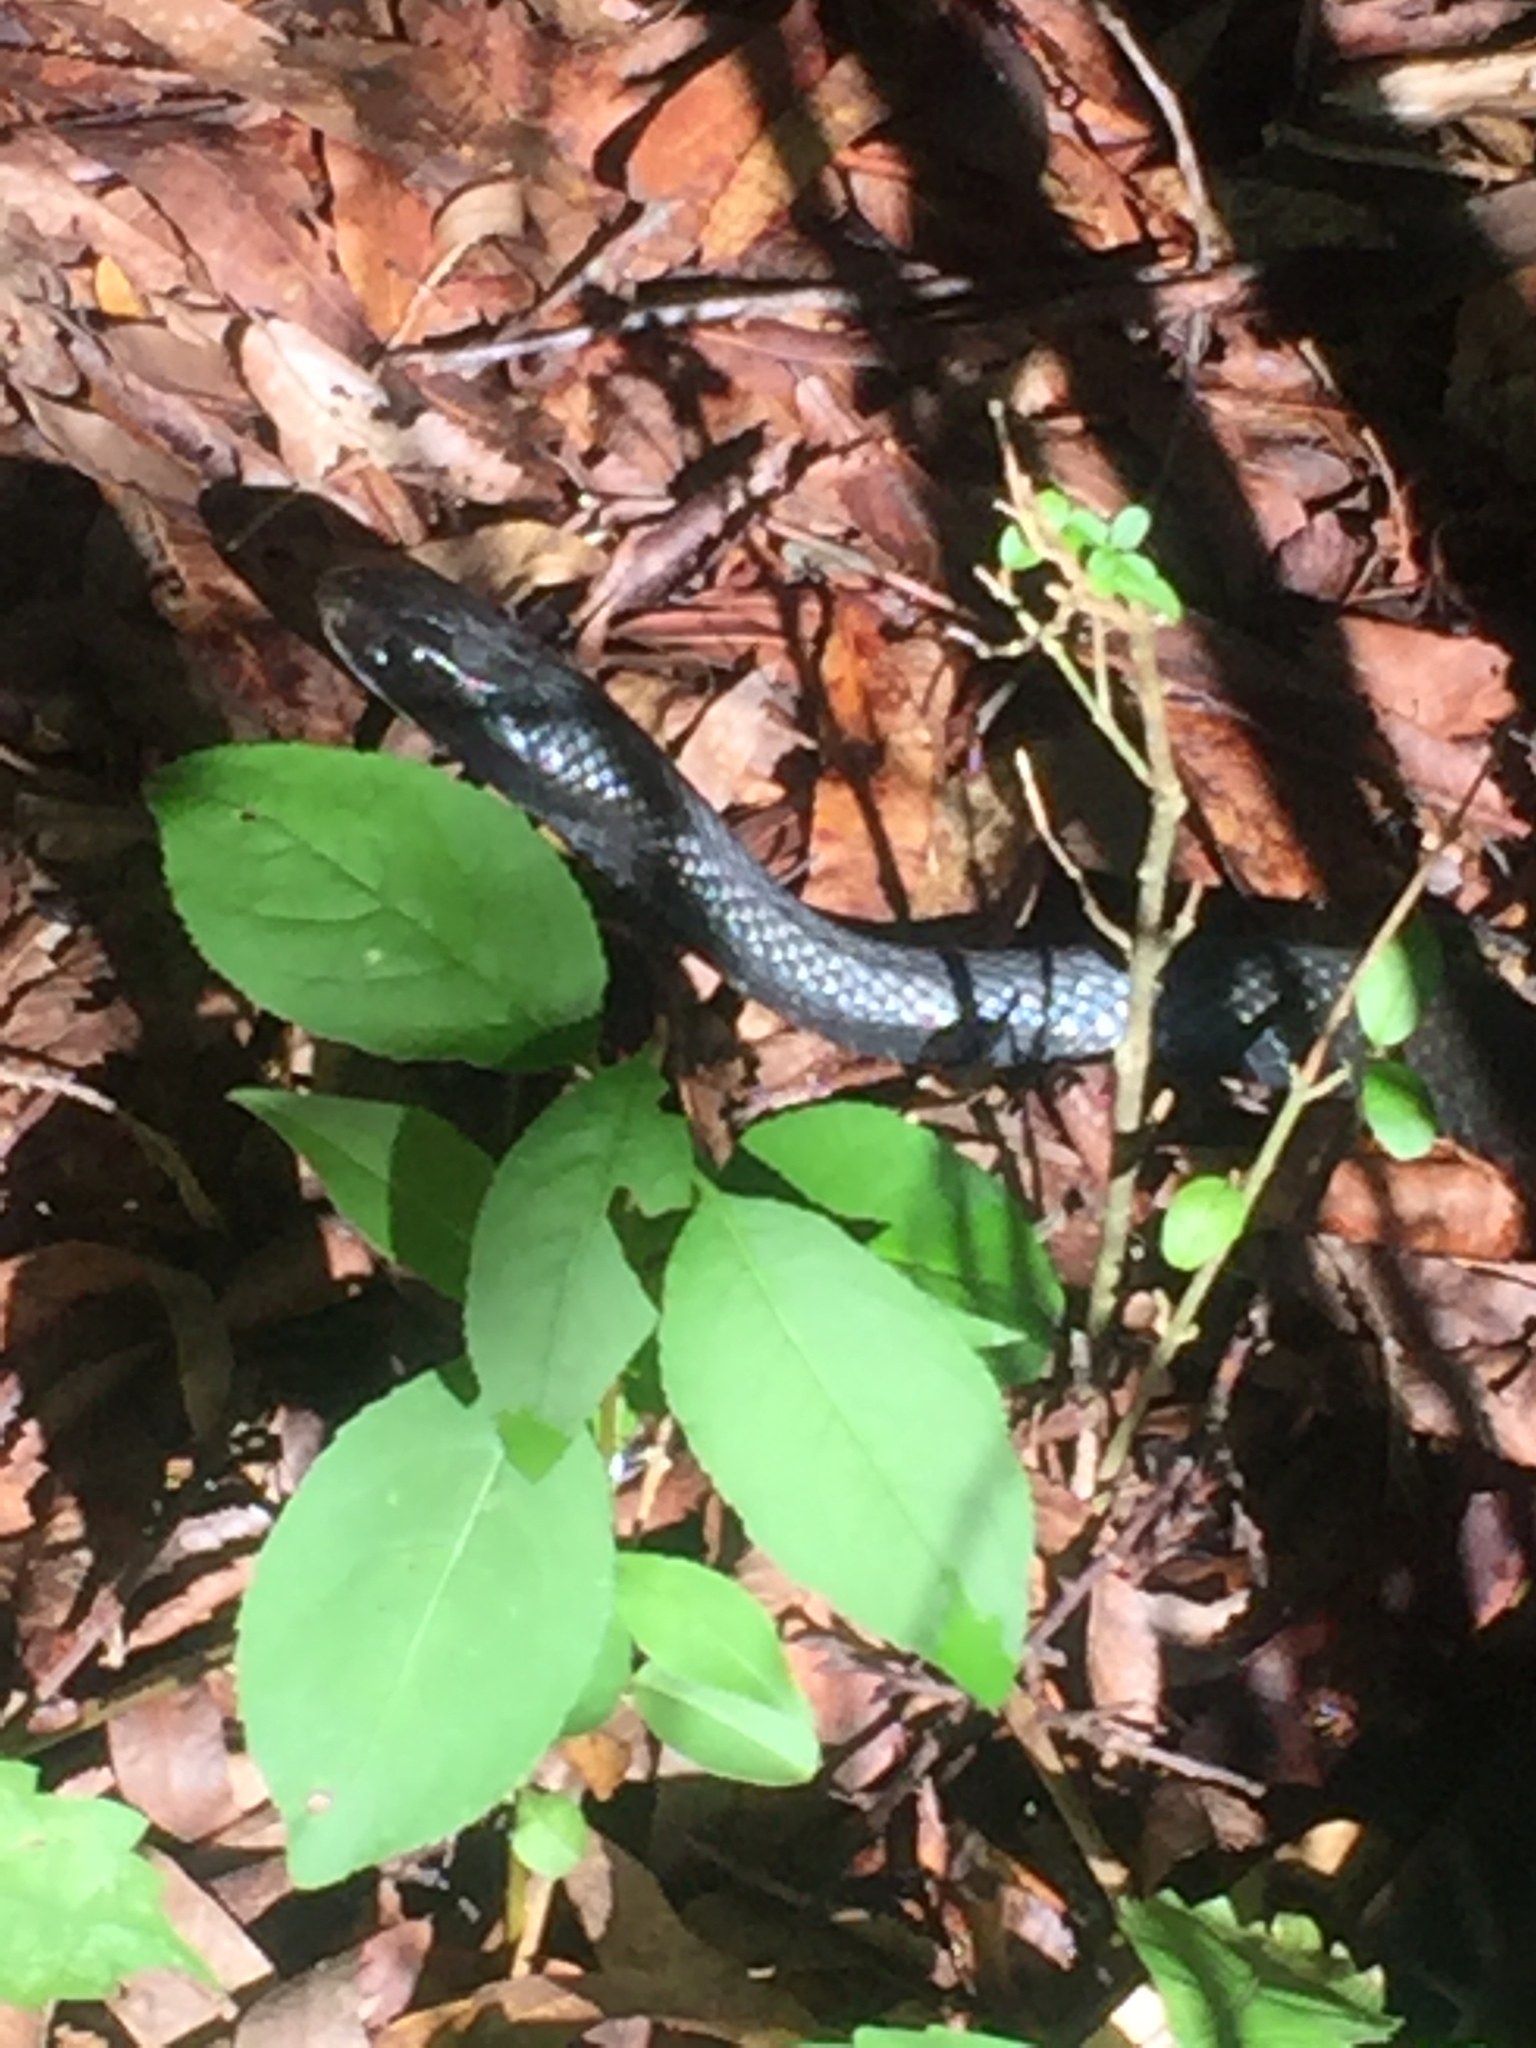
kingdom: Animalia
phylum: Chordata
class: Squamata
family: Colubridae
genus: Coluber
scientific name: Coluber constrictor
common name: Eastern racer
